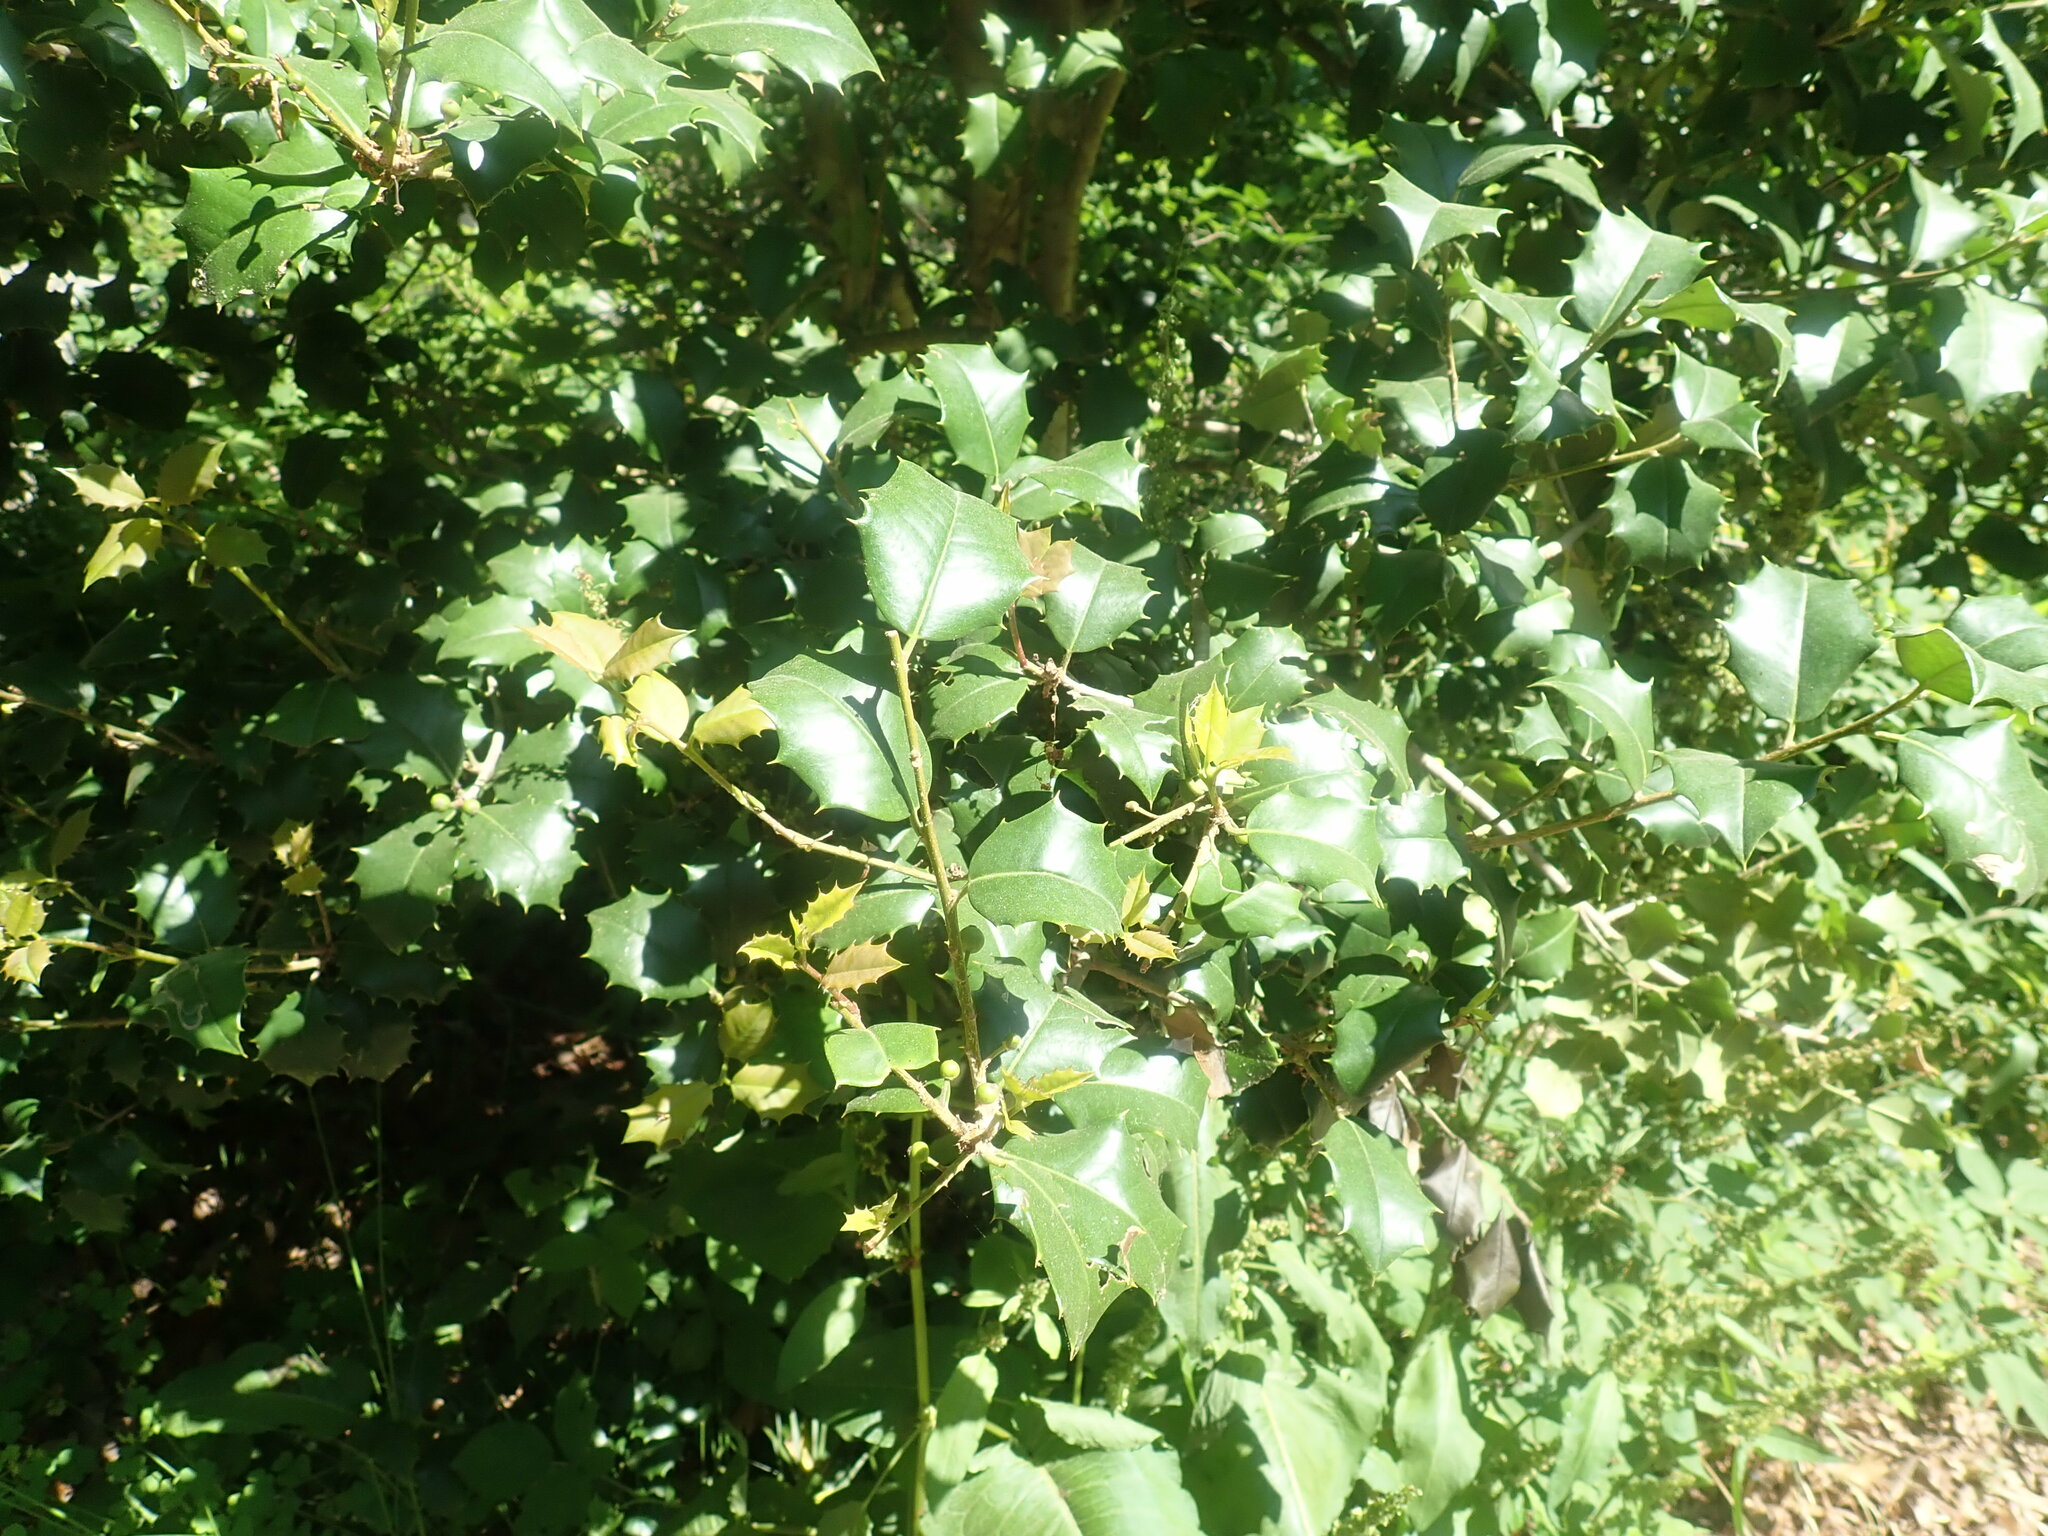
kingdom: Plantae
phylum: Tracheophyta
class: Magnoliopsida
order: Aquifoliales
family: Aquifoliaceae
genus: Ilex
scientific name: Ilex opaca
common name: American holly
